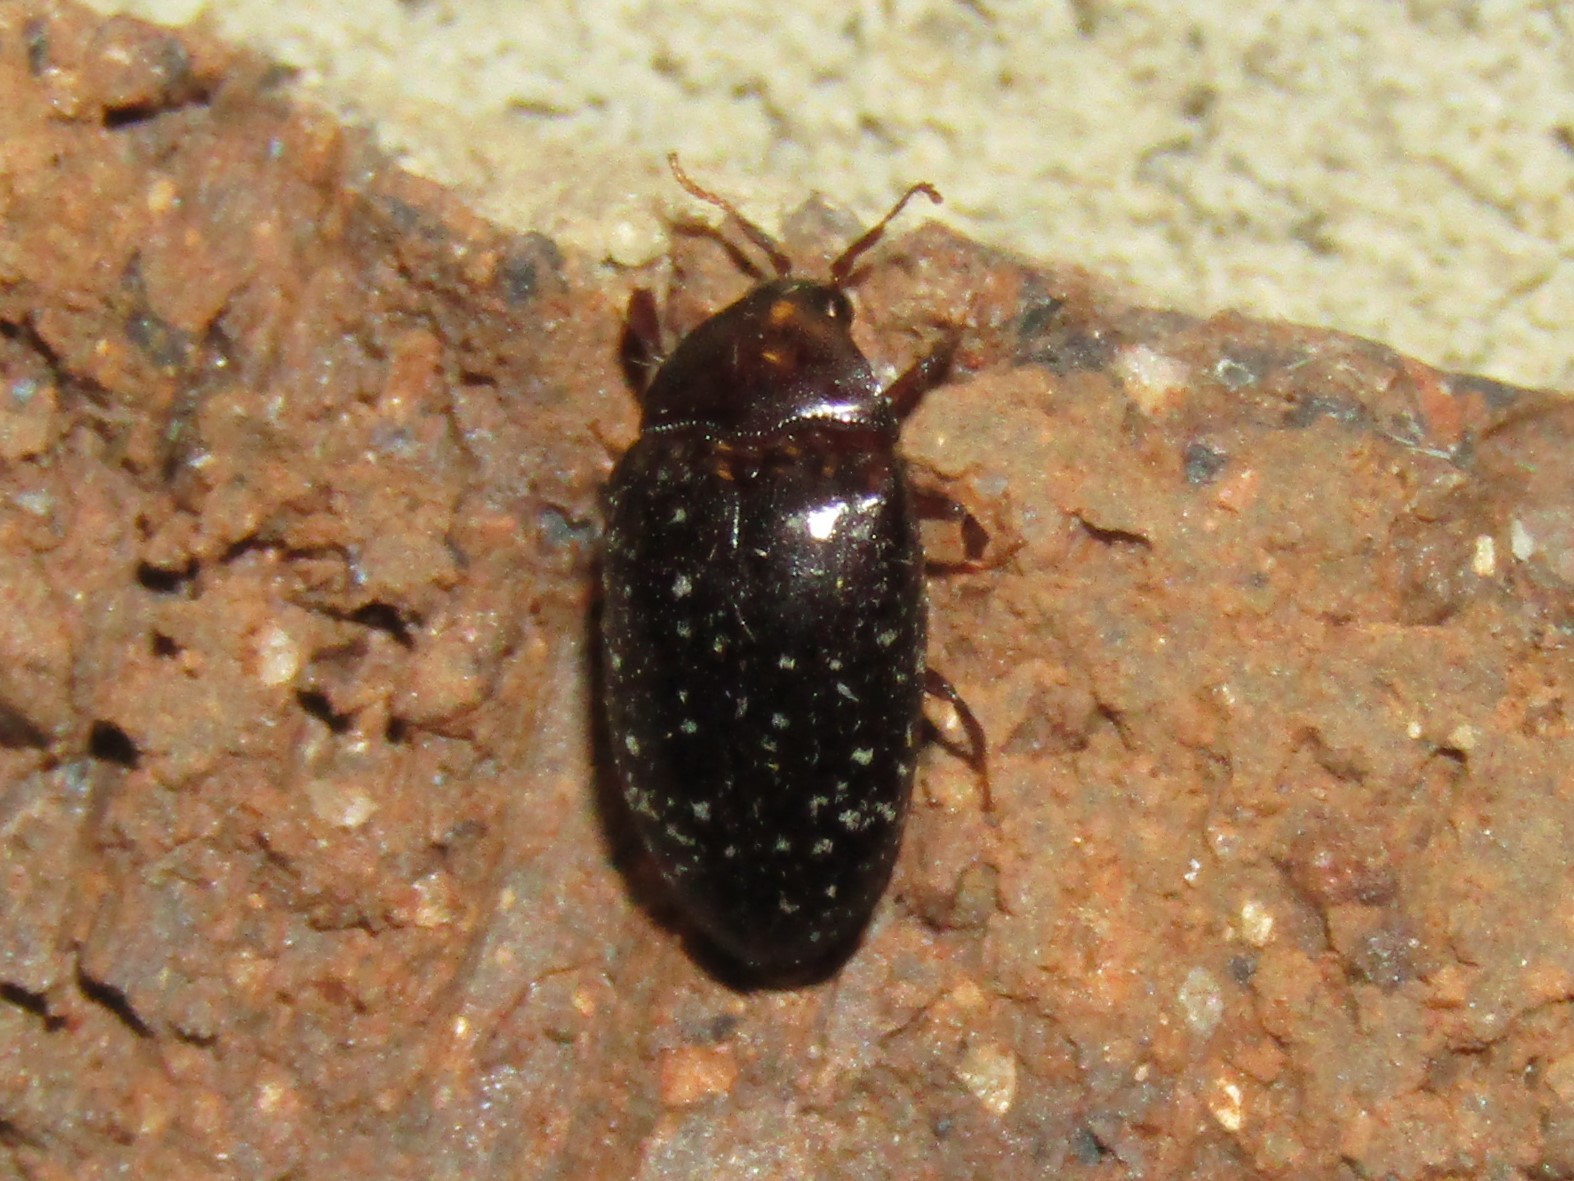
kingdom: Animalia
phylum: Arthropoda
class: Insecta
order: Coleoptera
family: Chelonariidae
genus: Chelonarium
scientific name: Chelonarium lecontei
